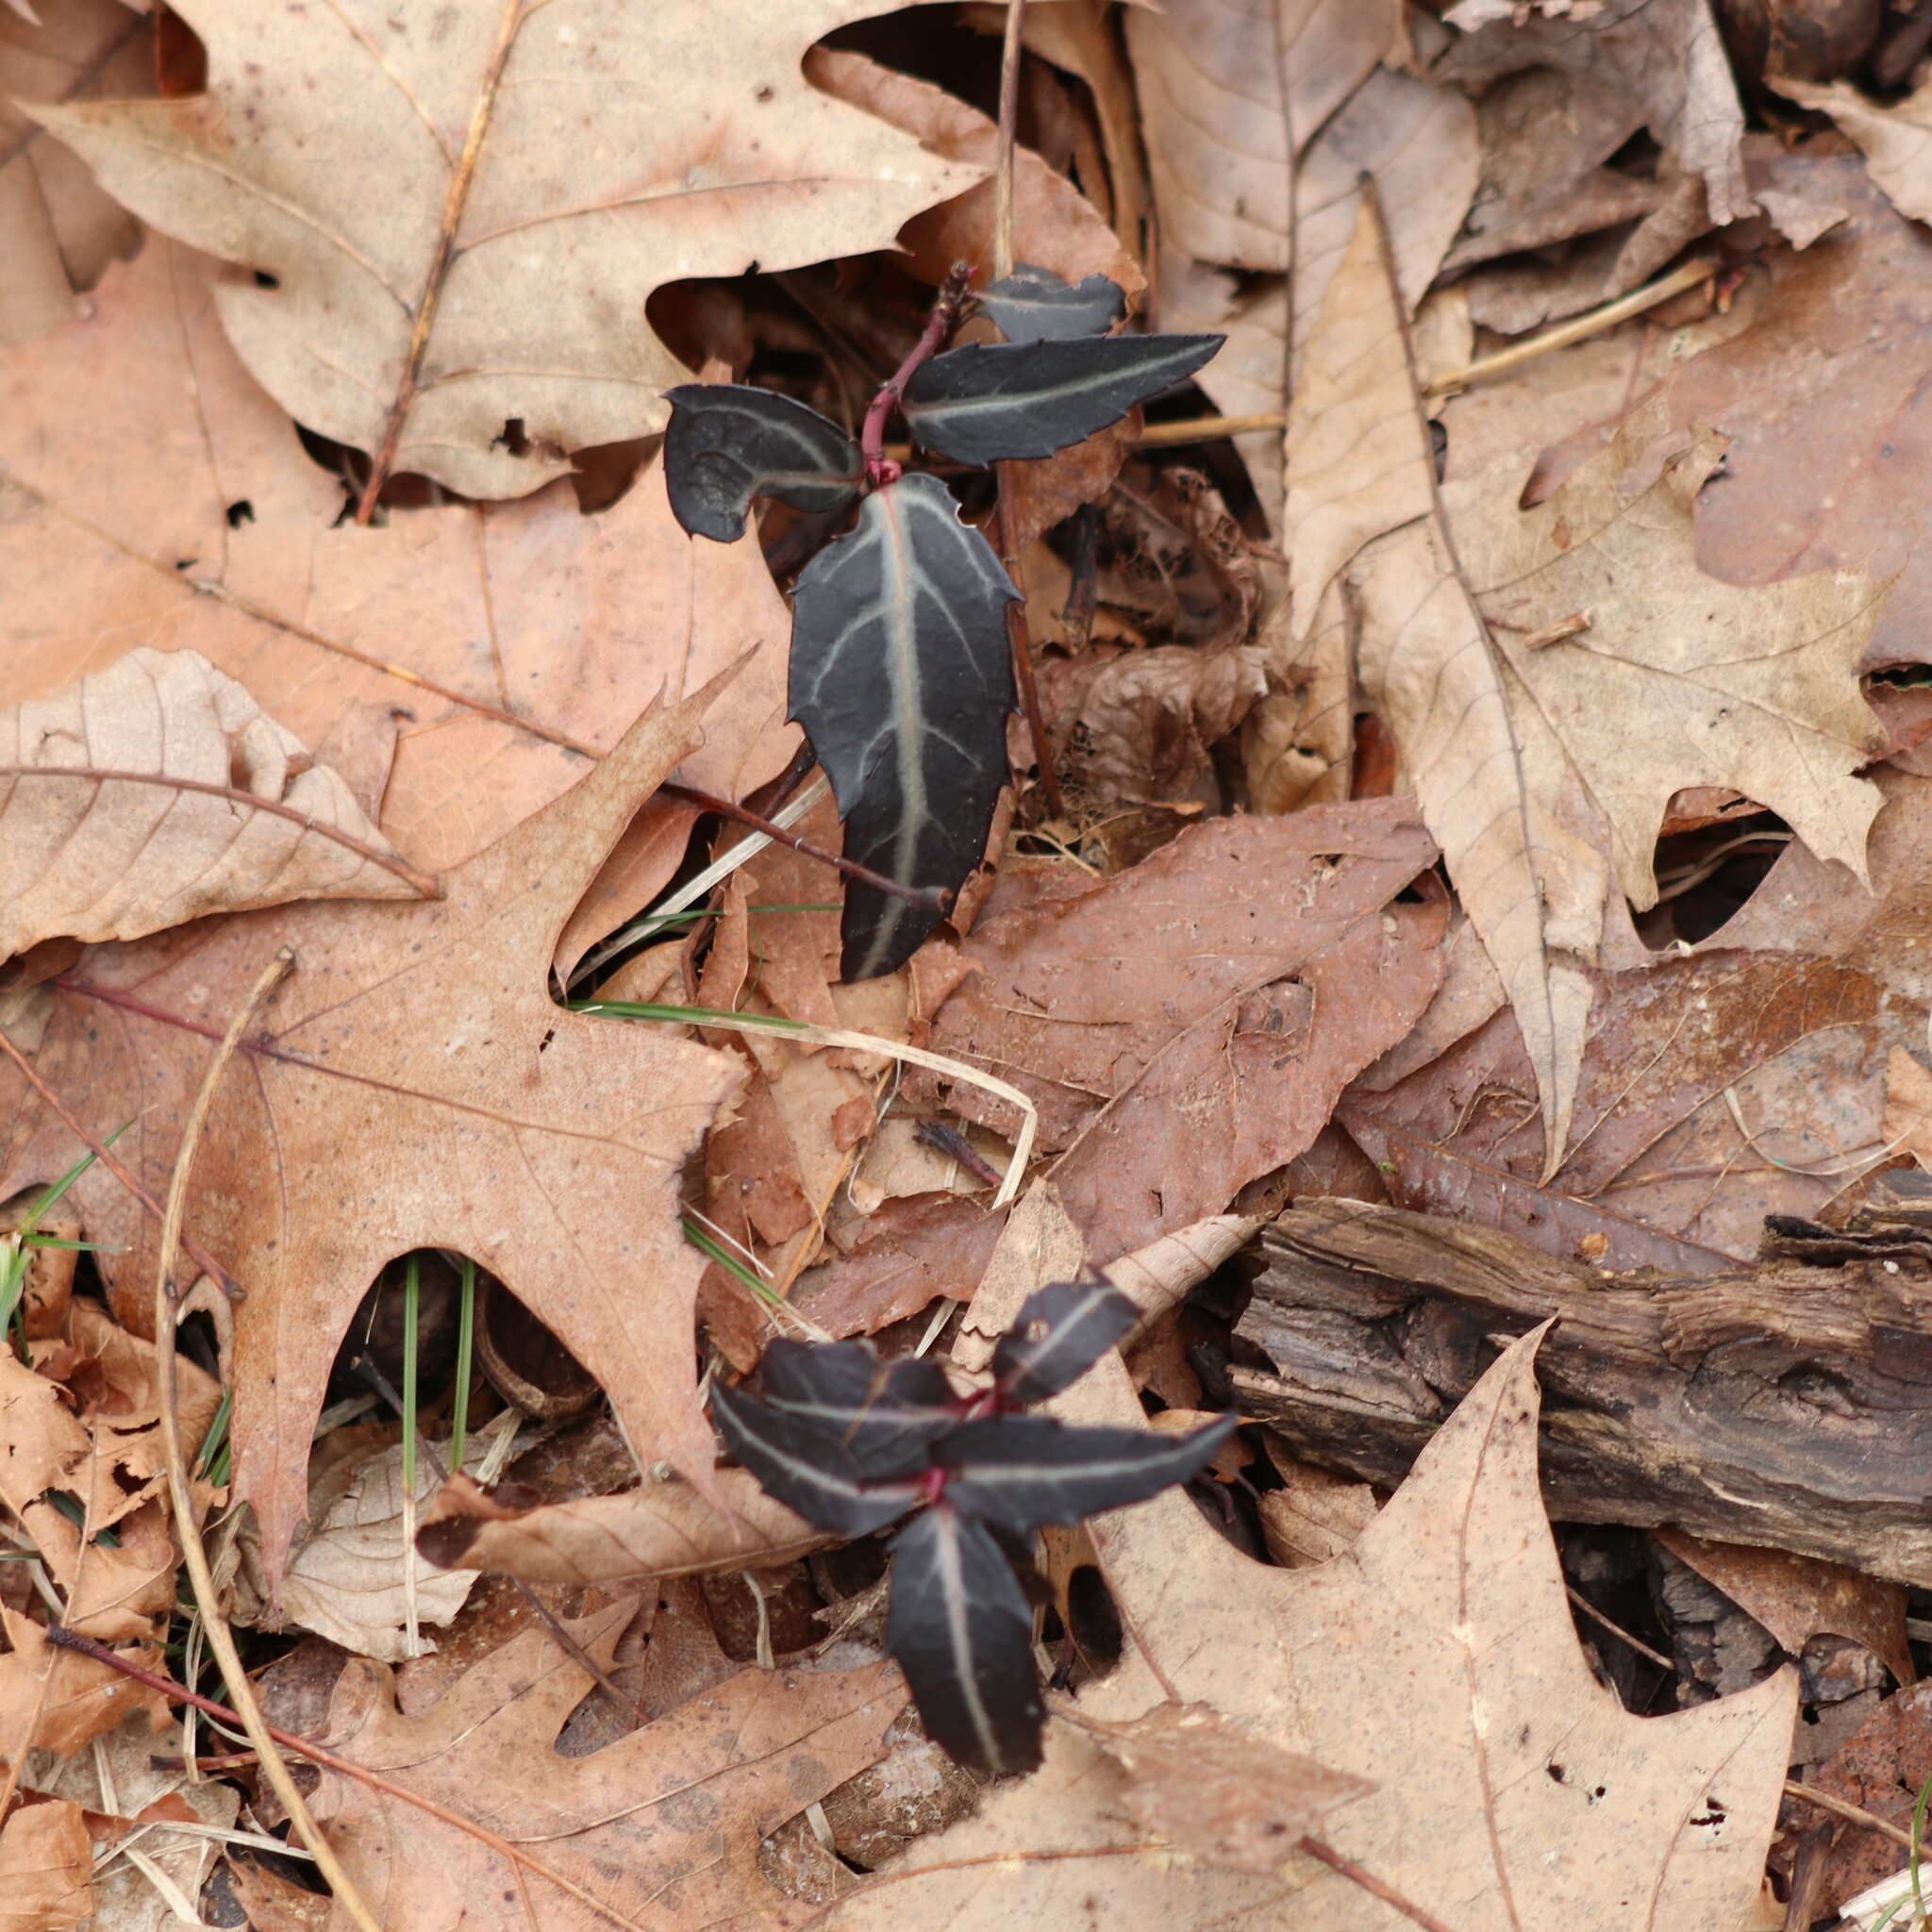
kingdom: Plantae
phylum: Tracheophyta
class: Magnoliopsida
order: Ericales
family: Ericaceae
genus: Chimaphila
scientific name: Chimaphila maculata
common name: Spotted pipsissewa
